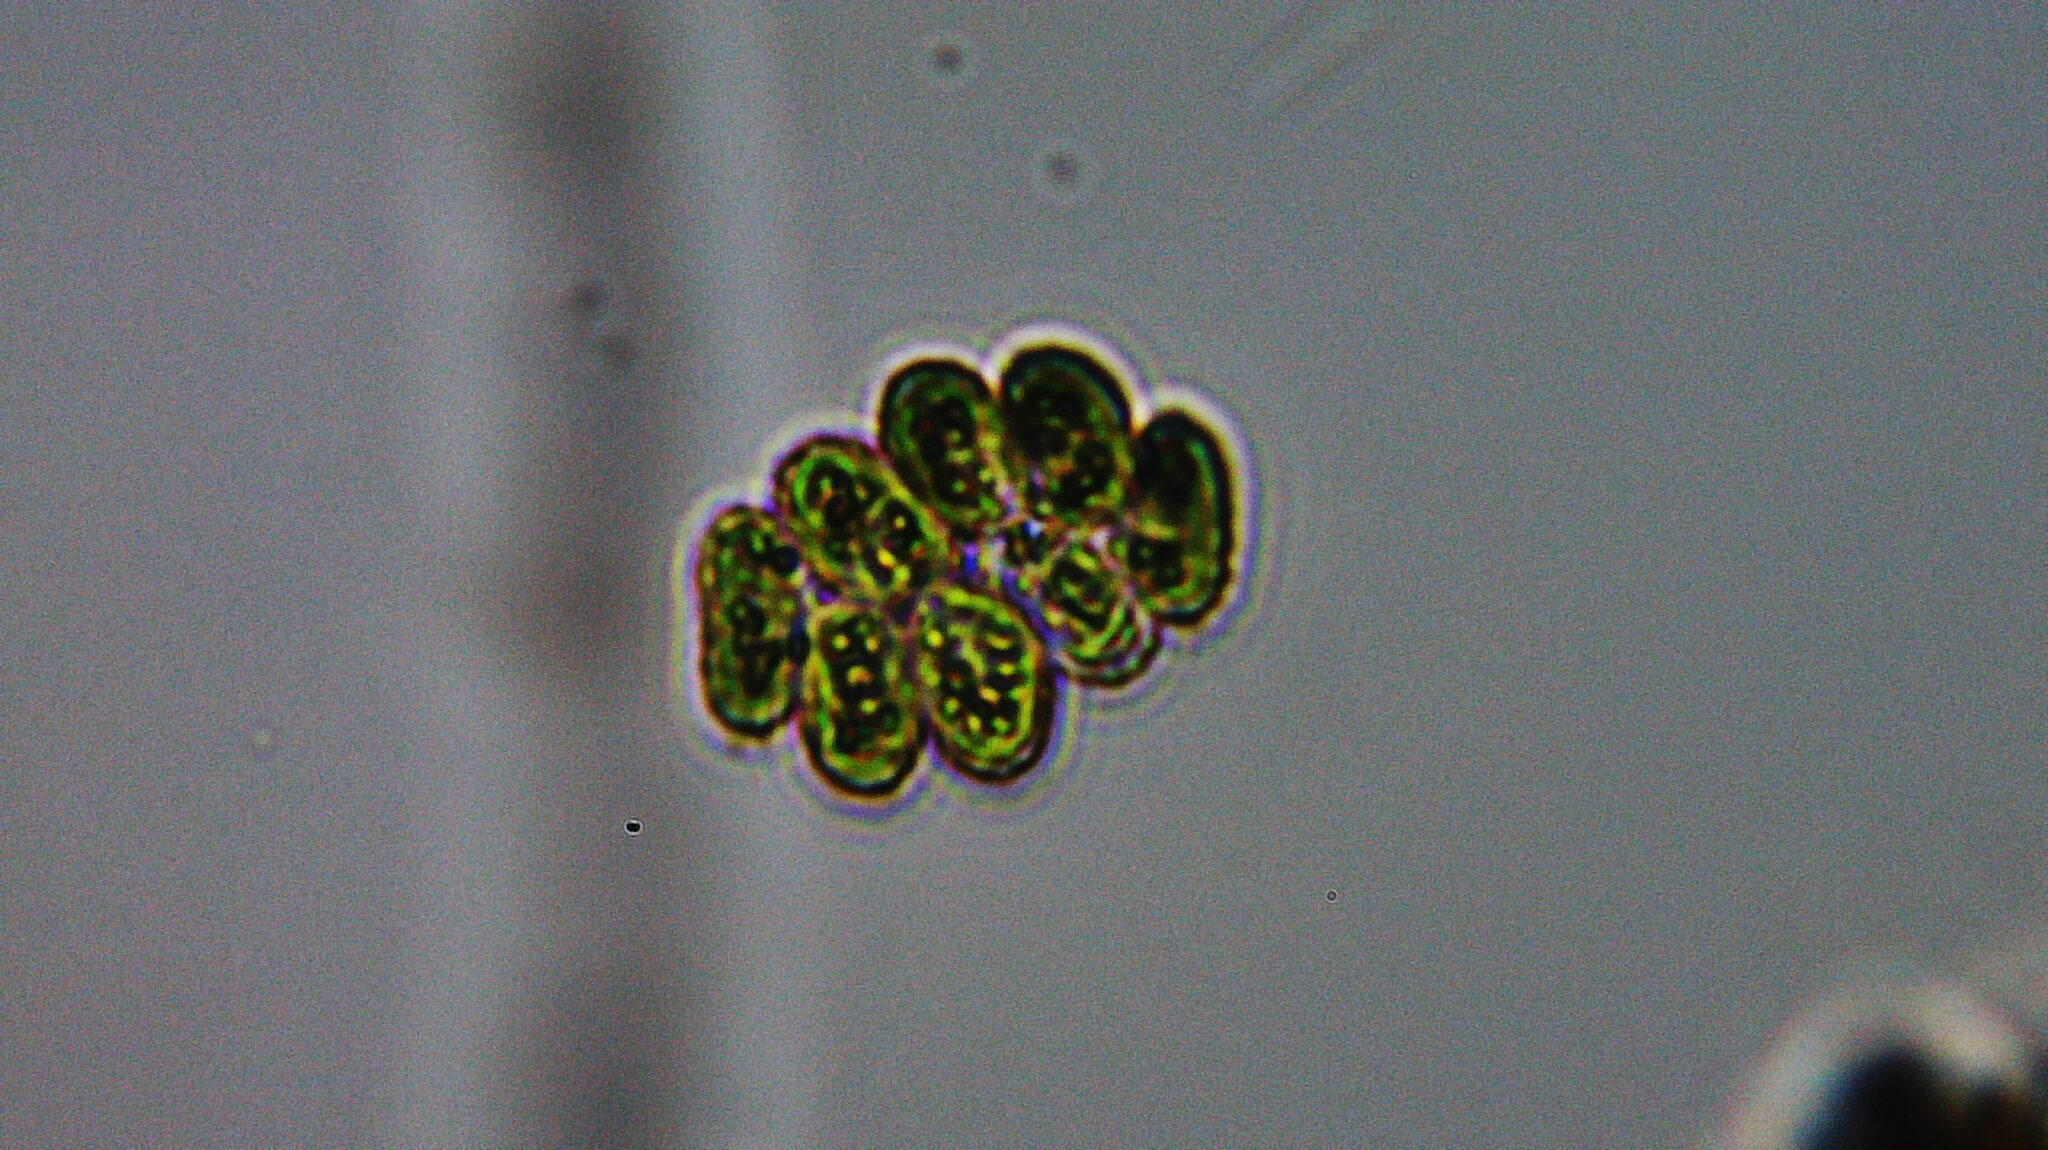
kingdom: Plantae
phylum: Chlorophyta
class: Chlorophyceae
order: Sphaeropleales
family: Scenedesmaceae
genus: Verrucodesmus
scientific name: Verrucodesmus verrucosus
